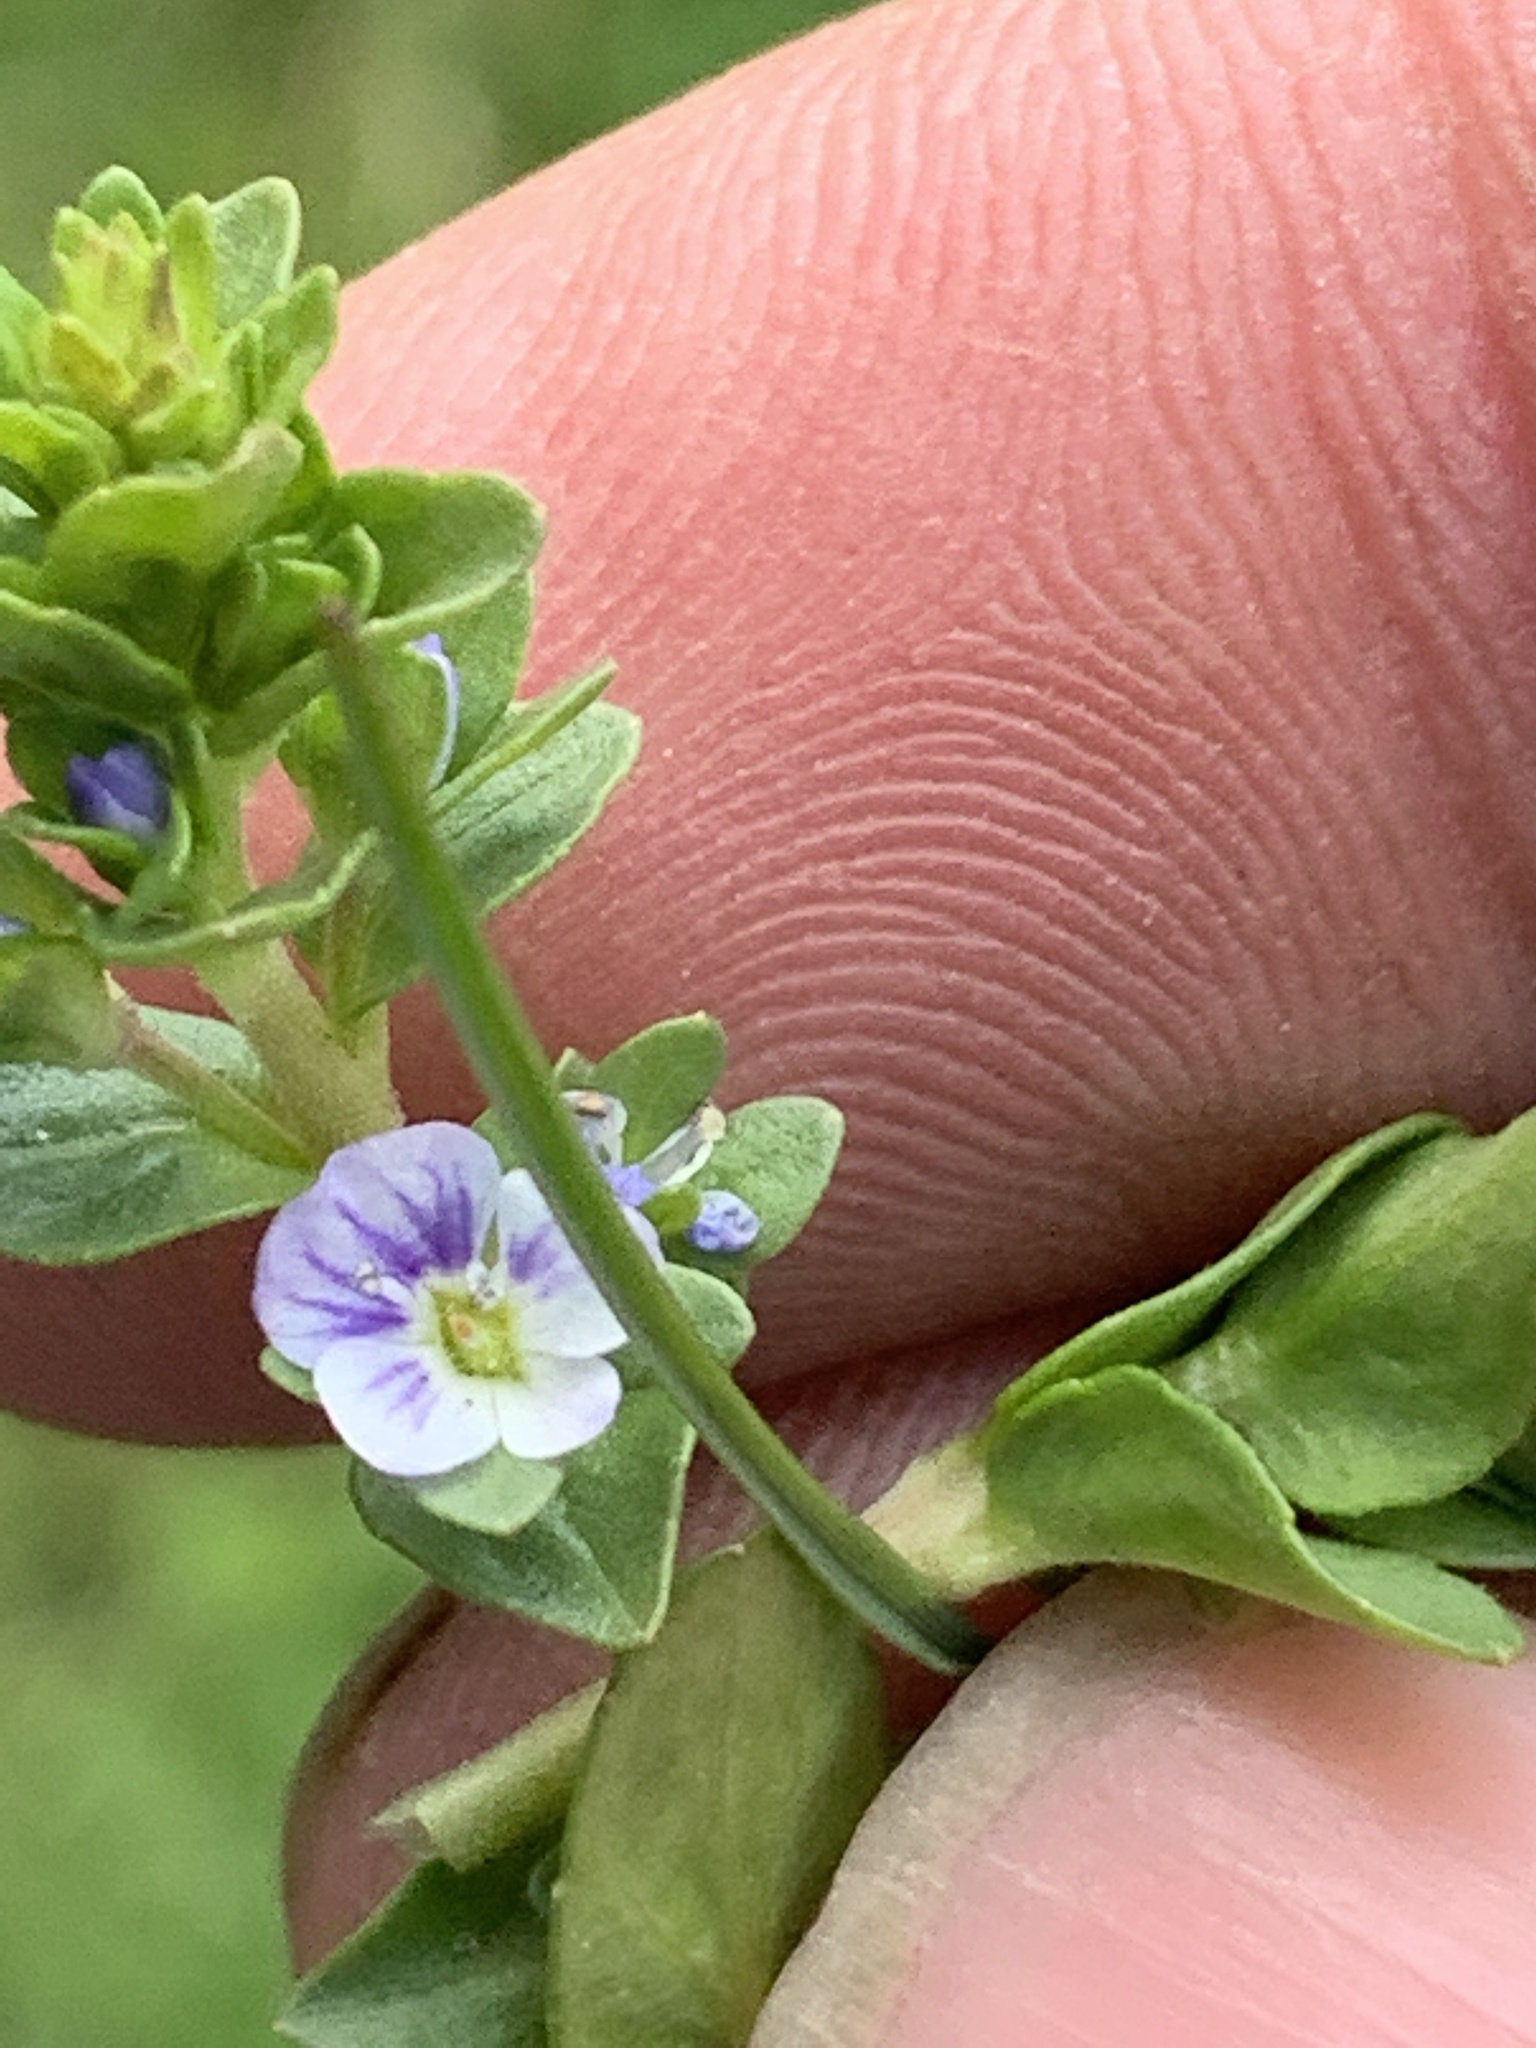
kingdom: Plantae
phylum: Tracheophyta
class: Magnoliopsida
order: Lamiales
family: Plantaginaceae
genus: Veronica
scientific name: Veronica serpyllifolia
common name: Thyme-leaved speedwell
